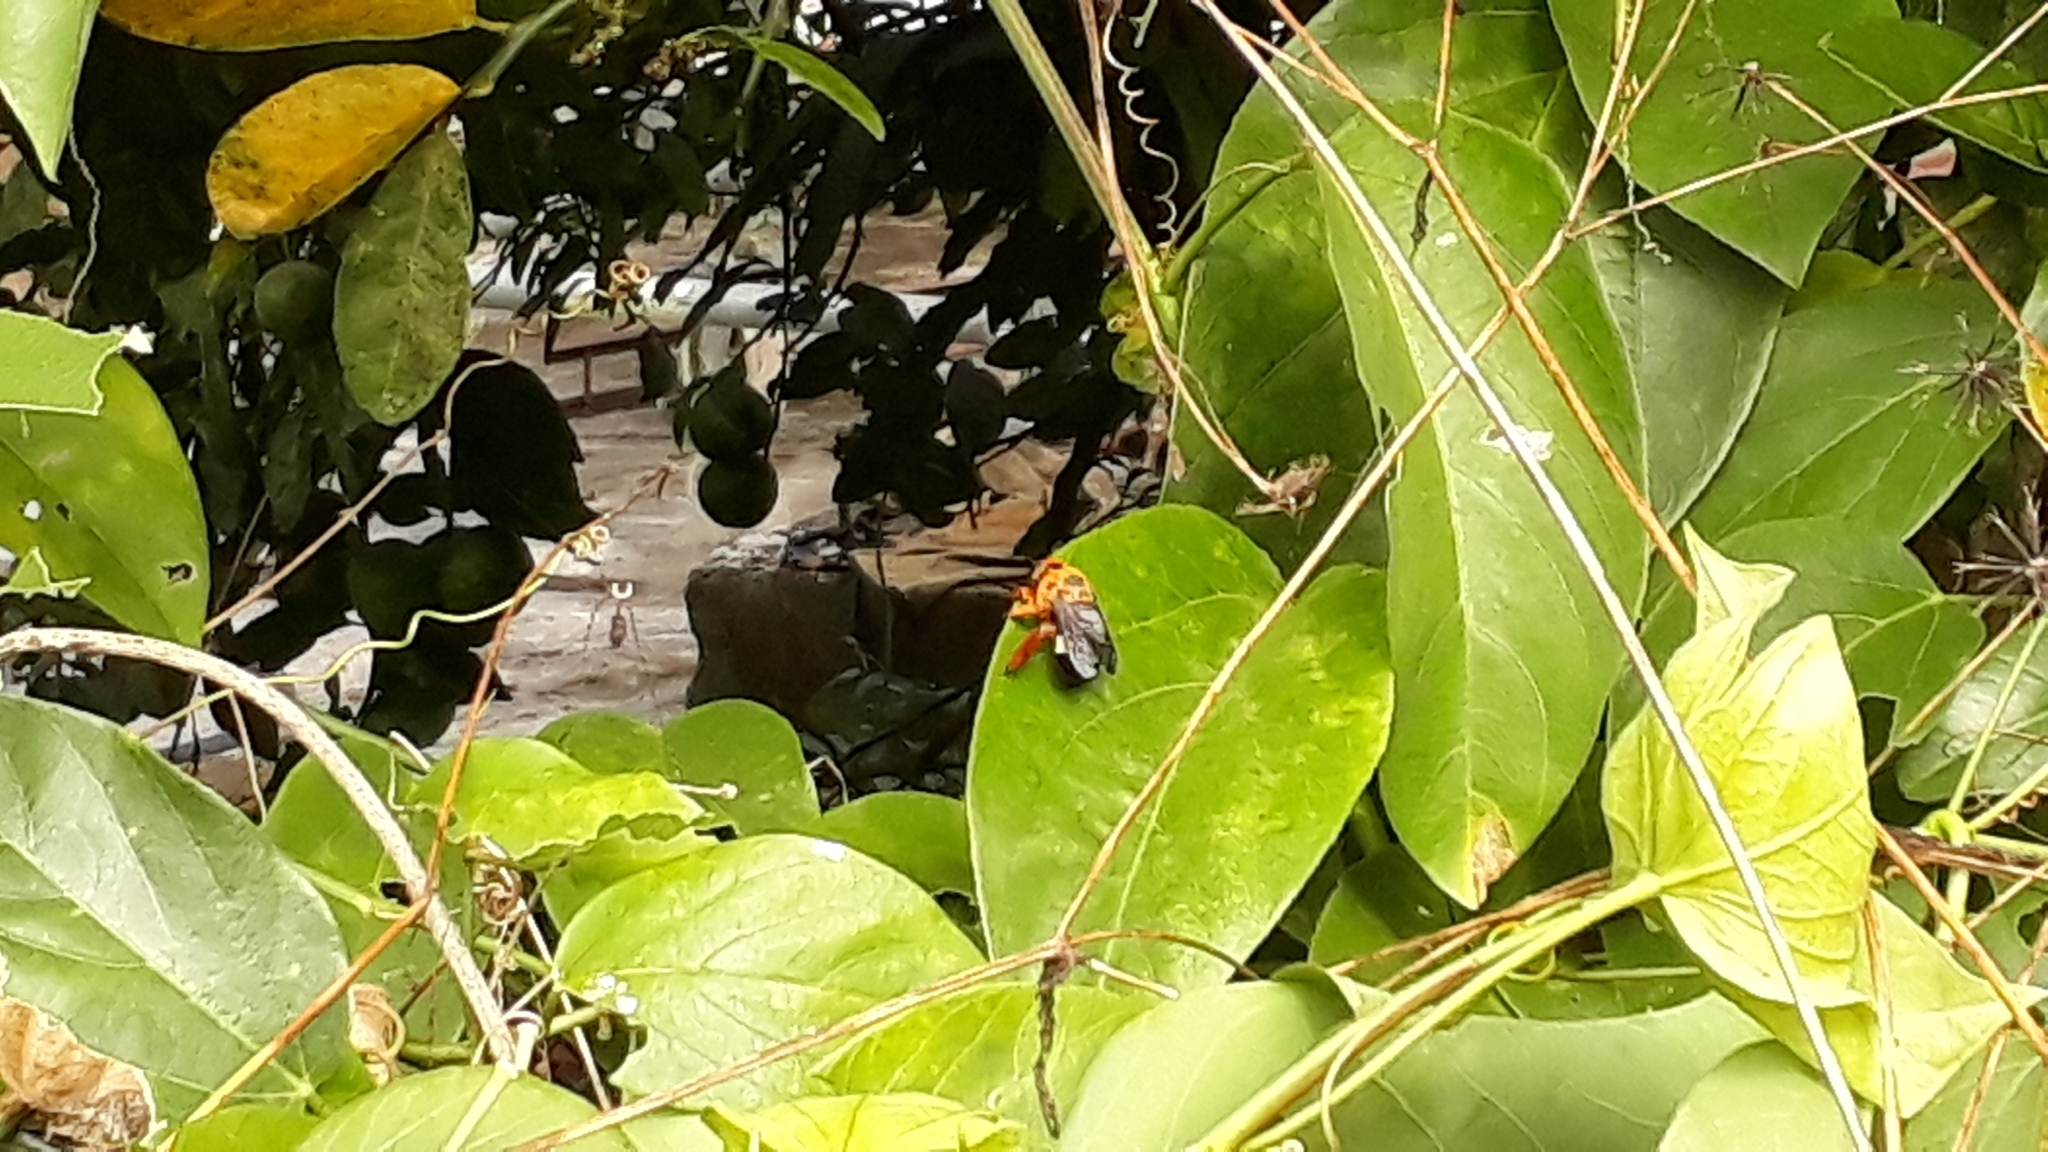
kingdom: Animalia
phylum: Arthropoda
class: Insecta
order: Hymenoptera
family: Apidae
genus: Centris
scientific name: Centris erythrosara
